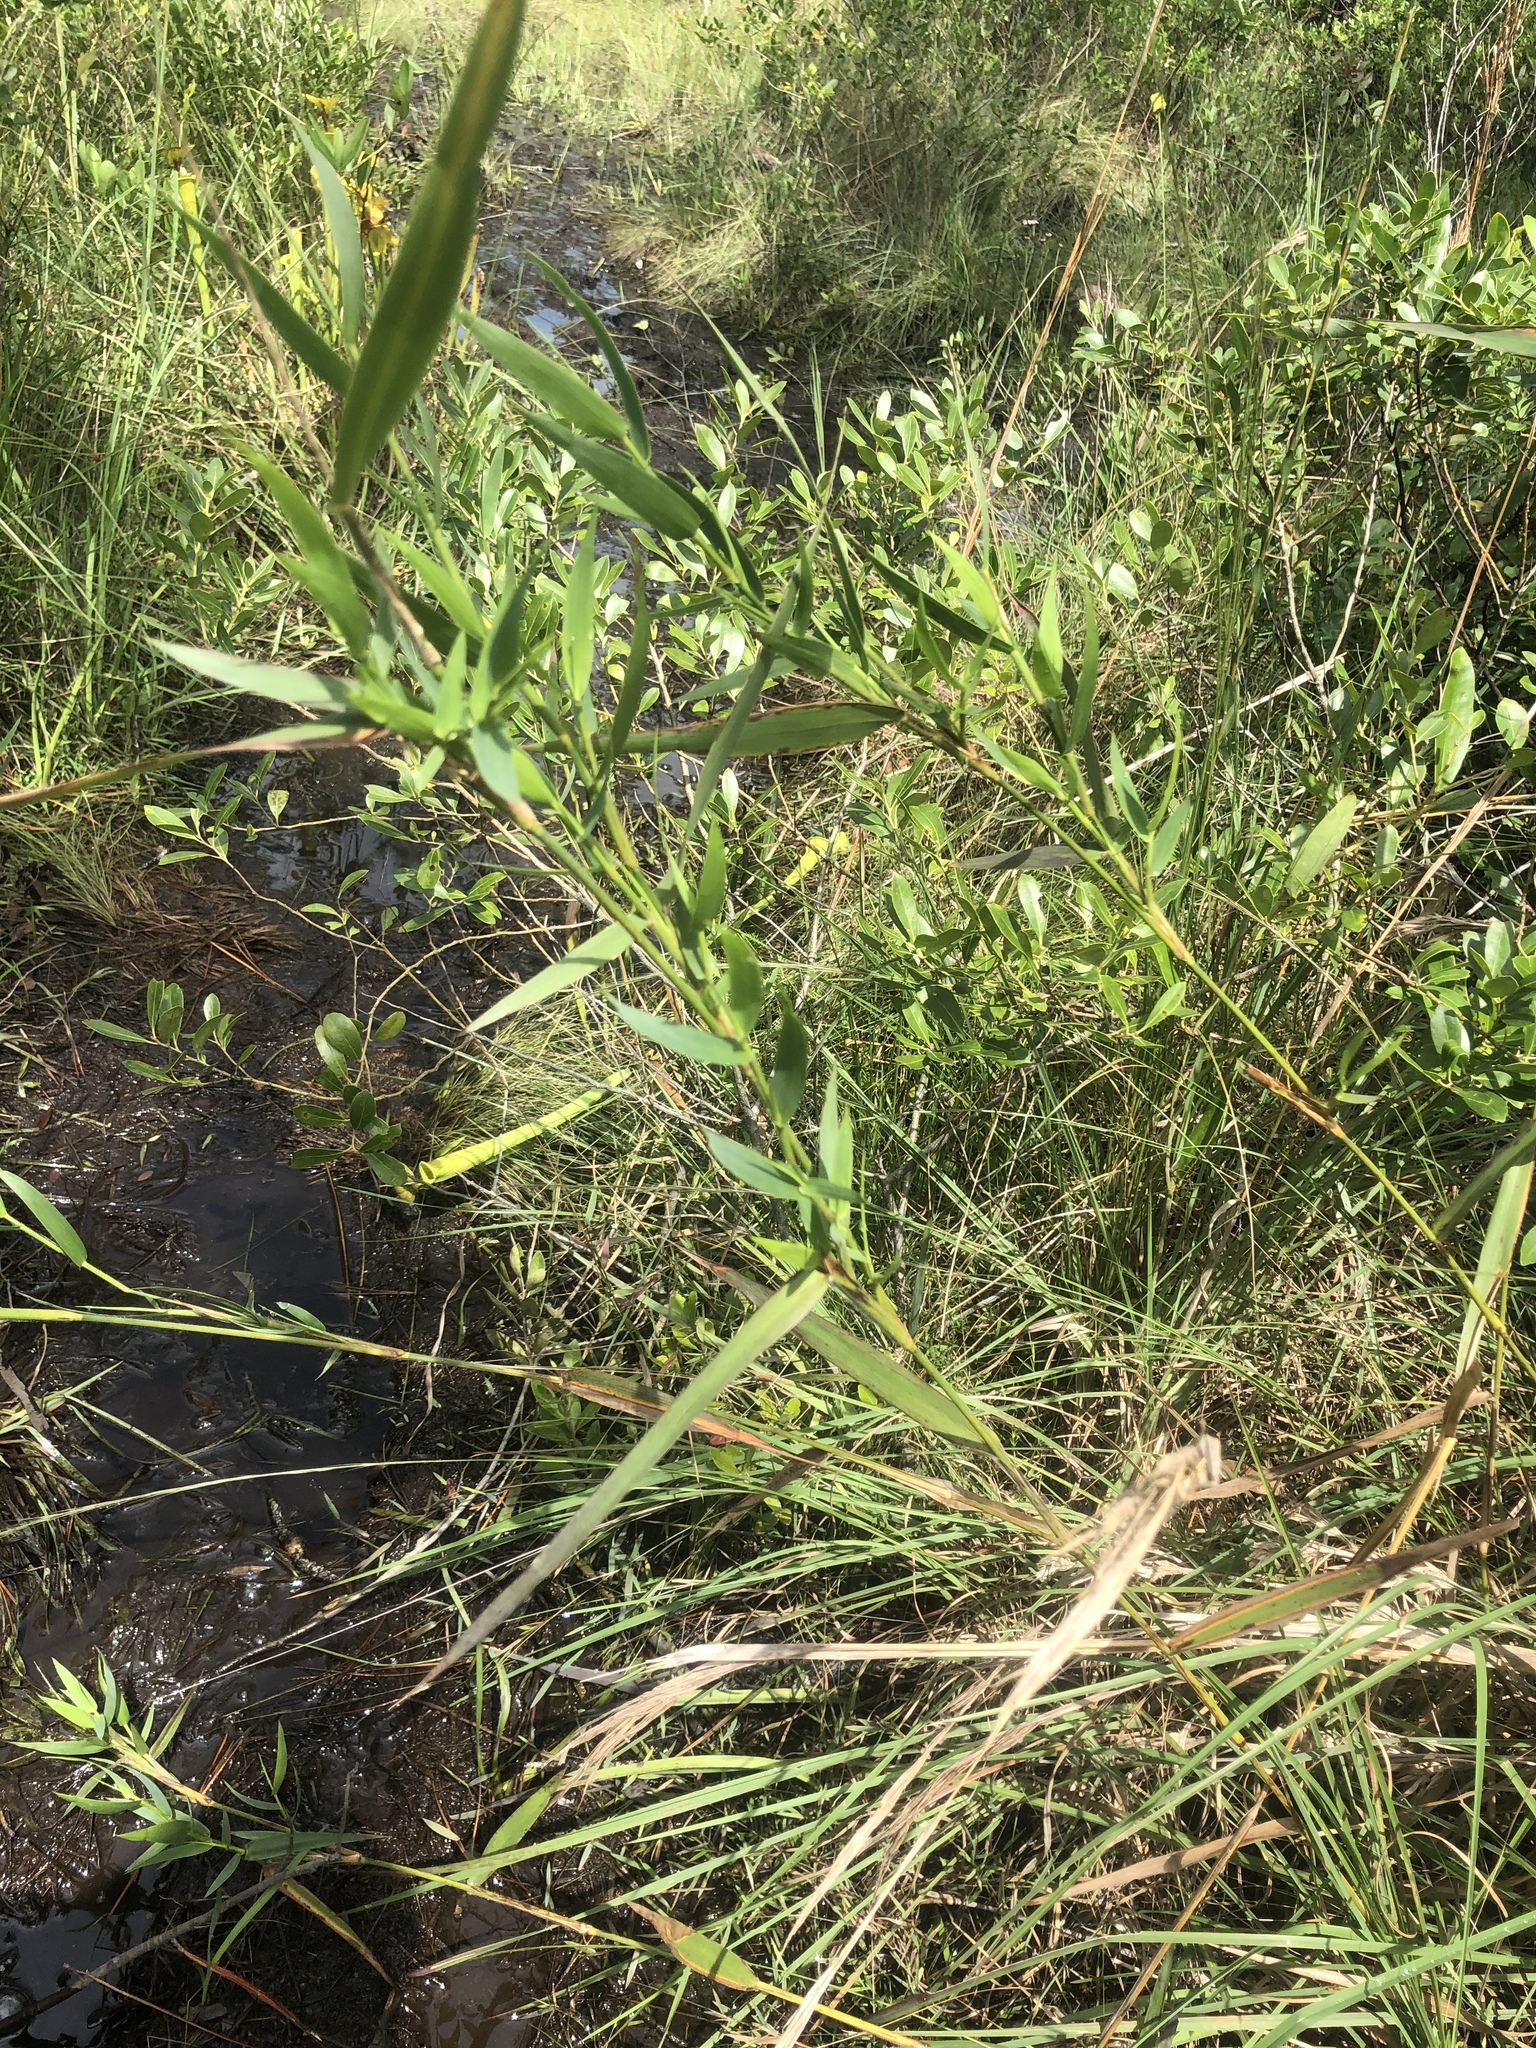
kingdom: Plantae
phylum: Tracheophyta
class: Liliopsida
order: Poales
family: Poaceae
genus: Dichanthelium
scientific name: Dichanthelium scabriusculum
